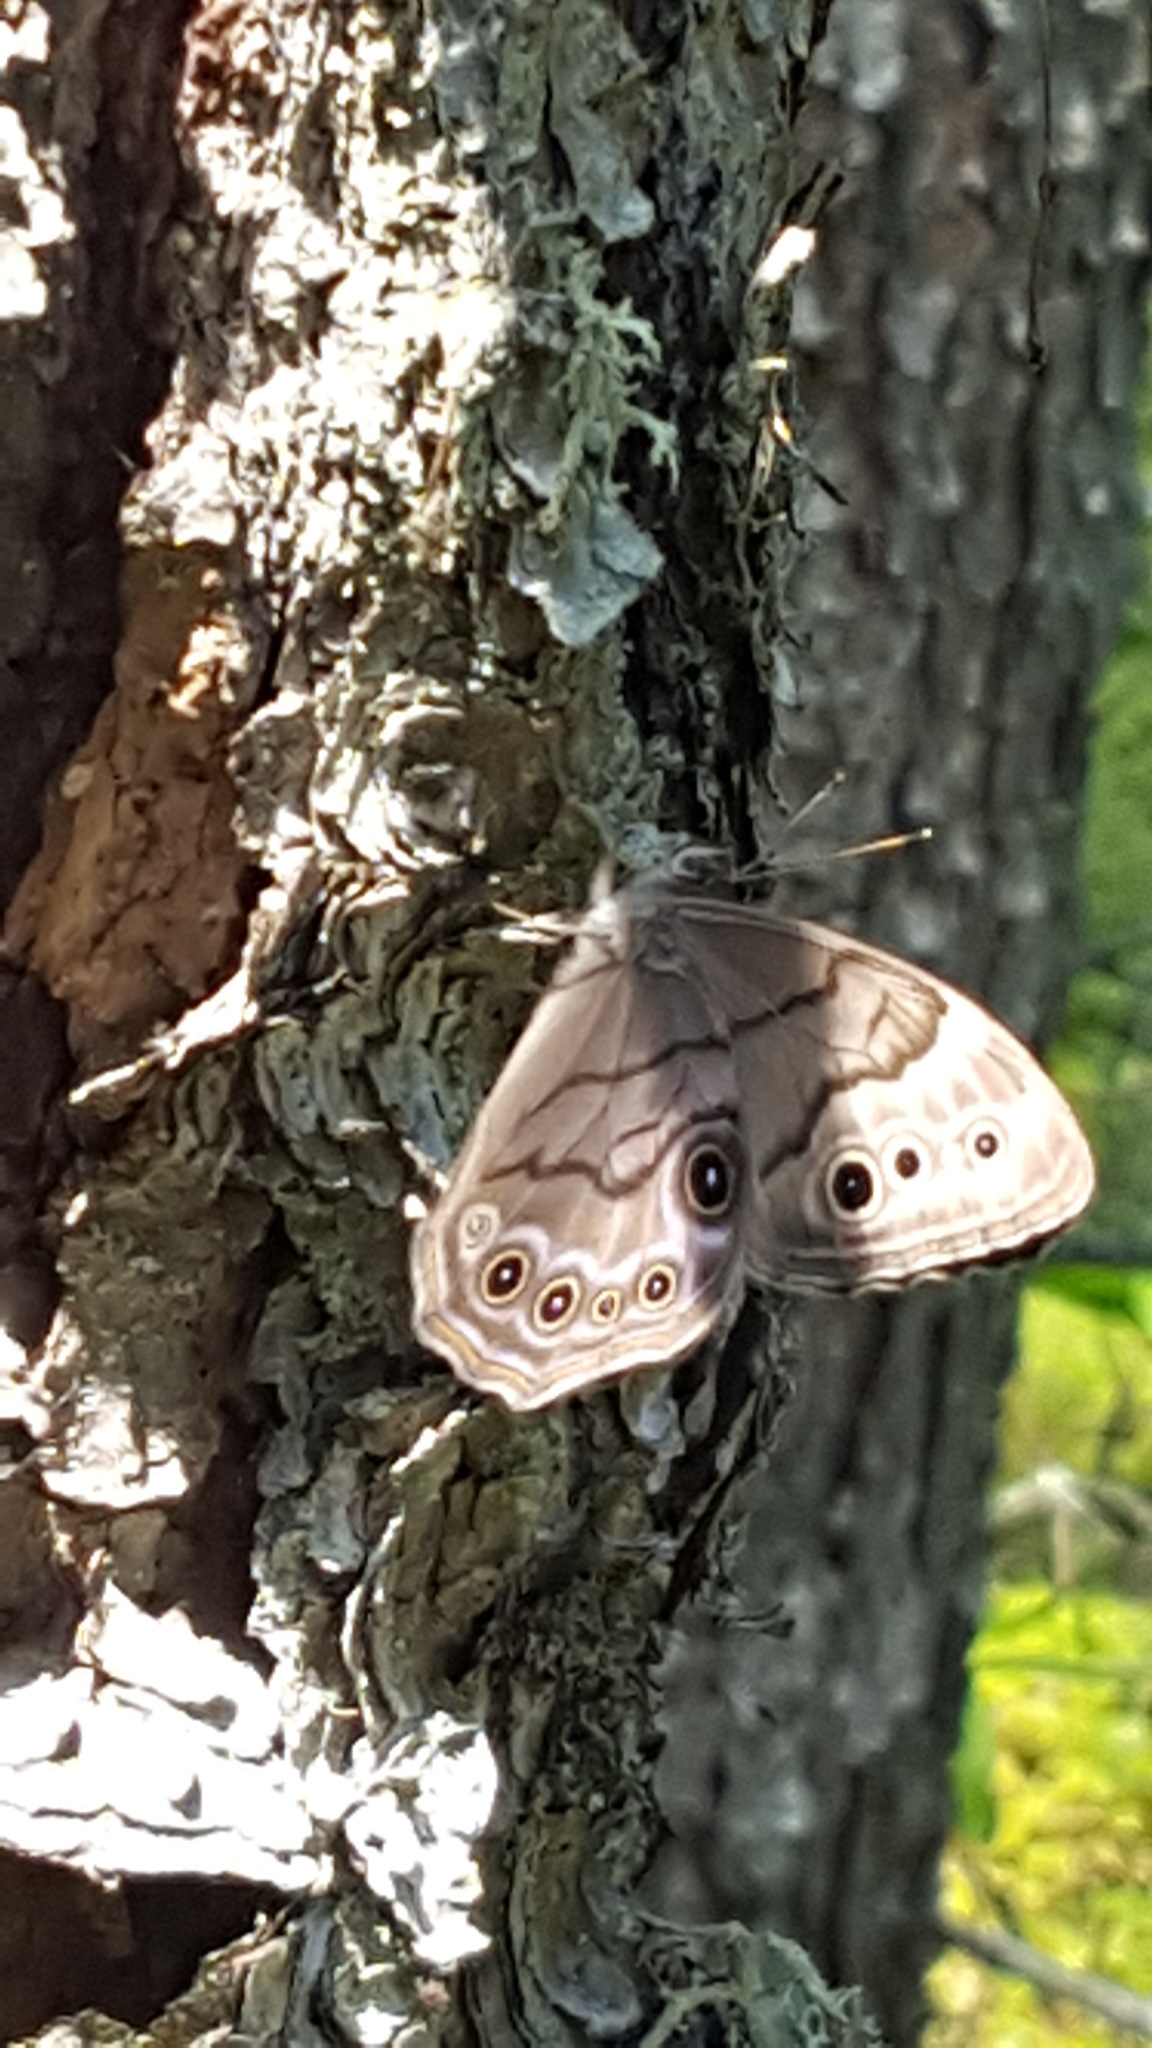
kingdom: Animalia
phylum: Arthropoda
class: Insecta
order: Lepidoptera
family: Nymphalidae
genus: Lethe
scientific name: Lethe anthedon
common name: Northern pearly-eye
